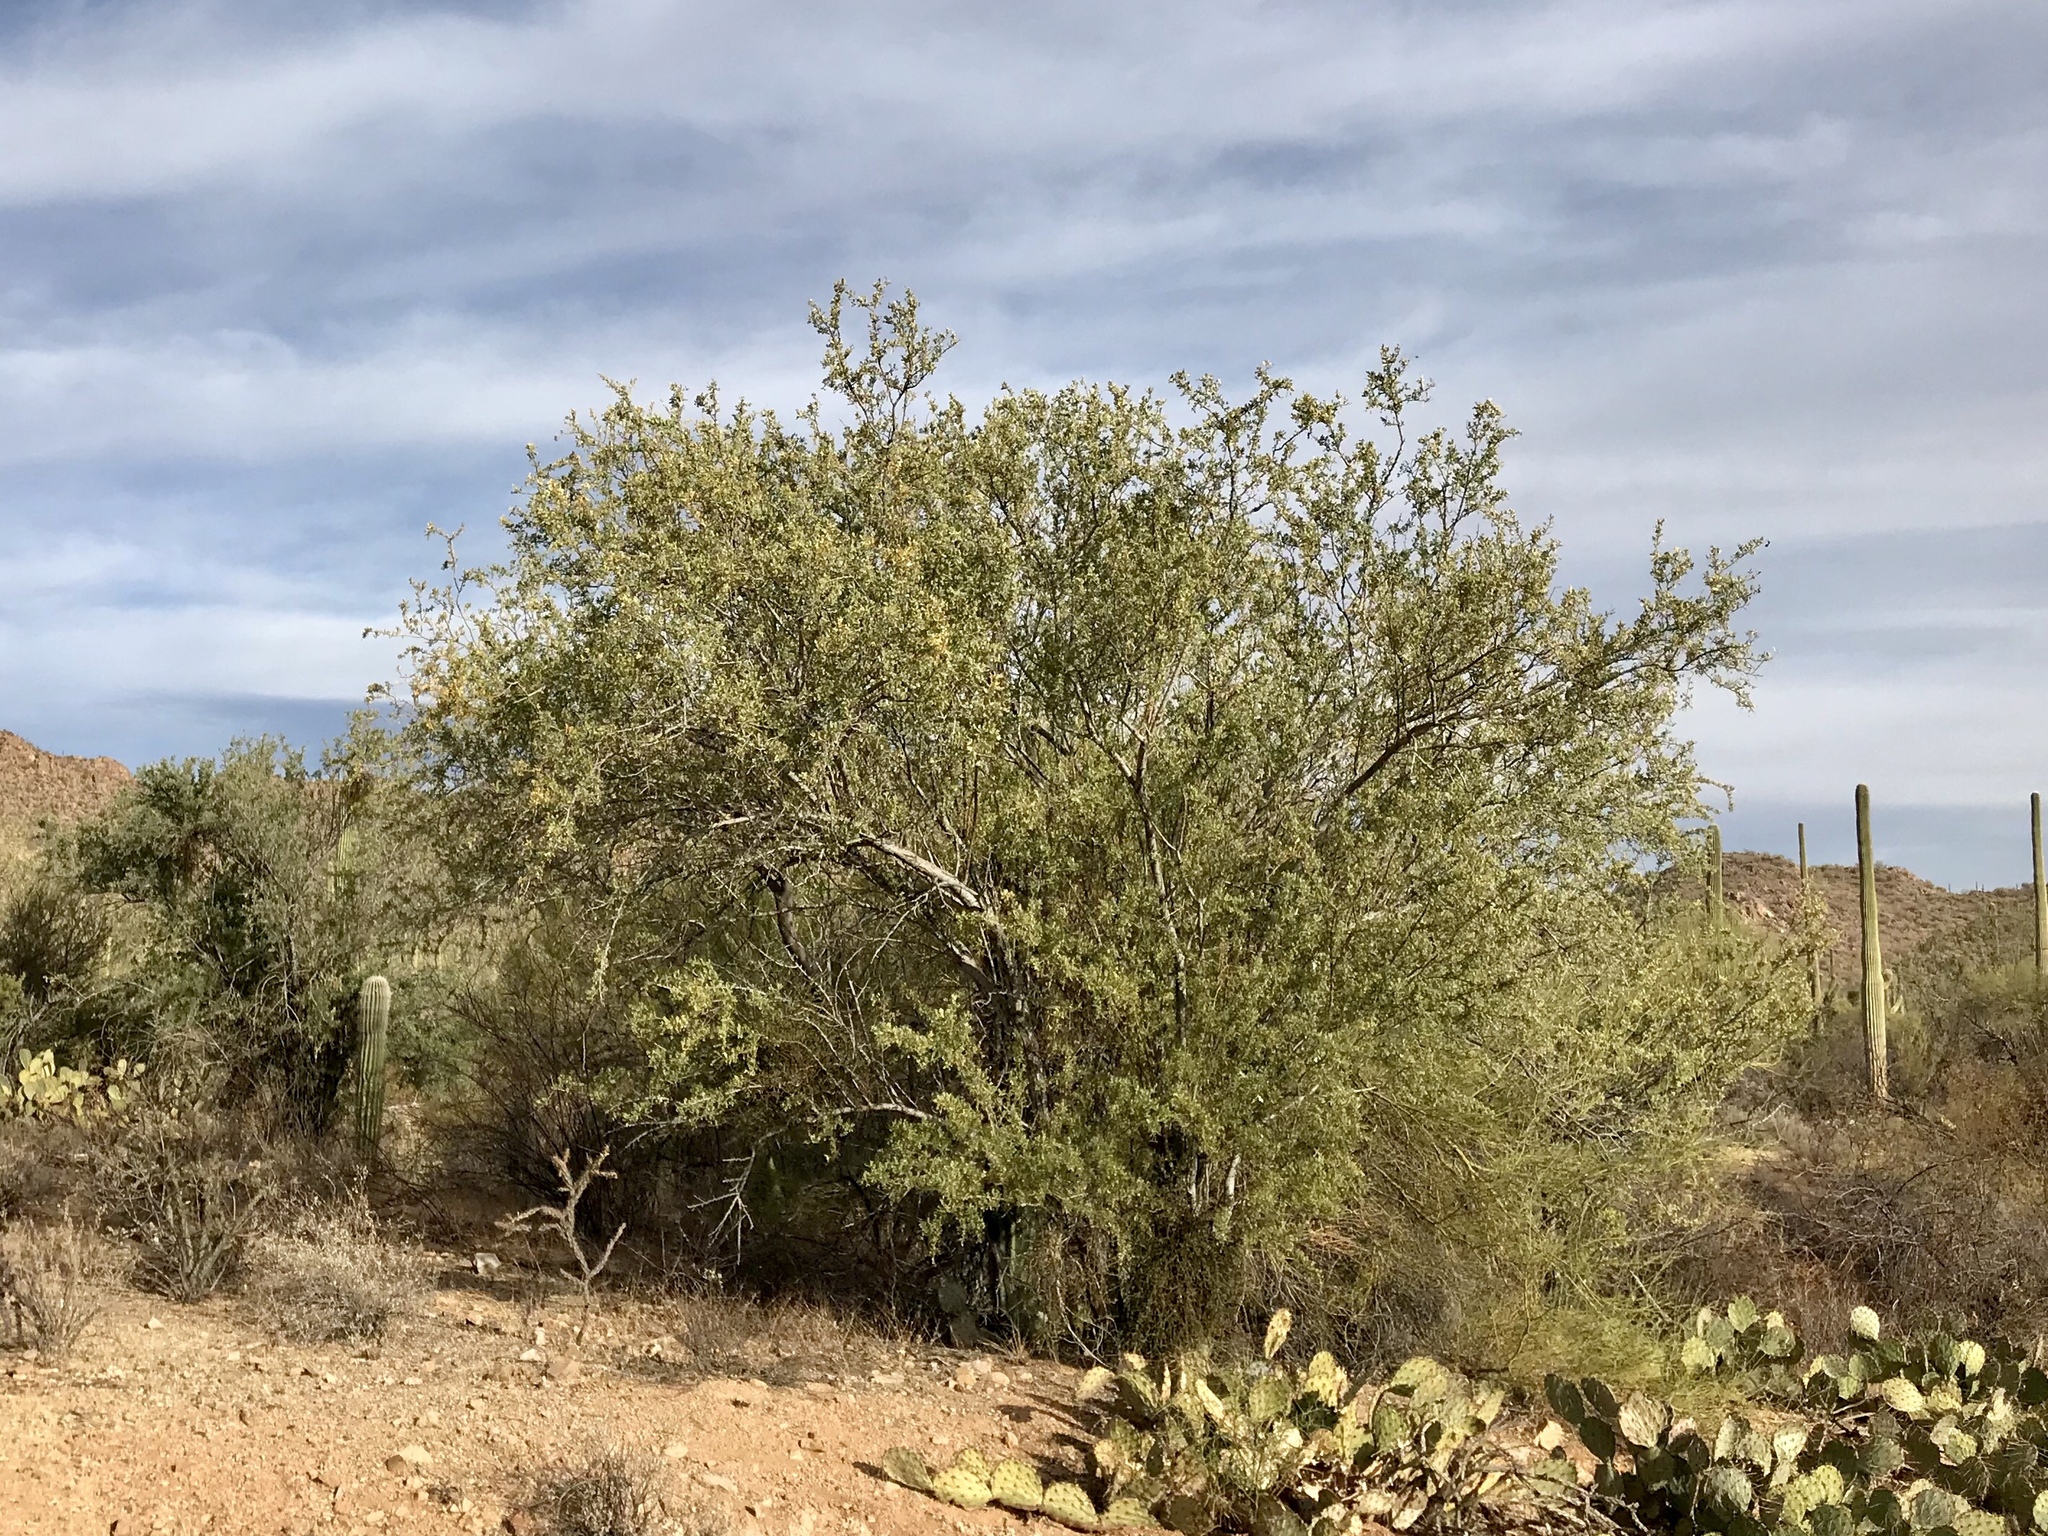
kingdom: Plantae
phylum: Tracheophyta
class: Magnoliopsida
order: Fabales
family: Fabaceae
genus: Olneya
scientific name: Olneya tesota
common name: Desert ironwood
